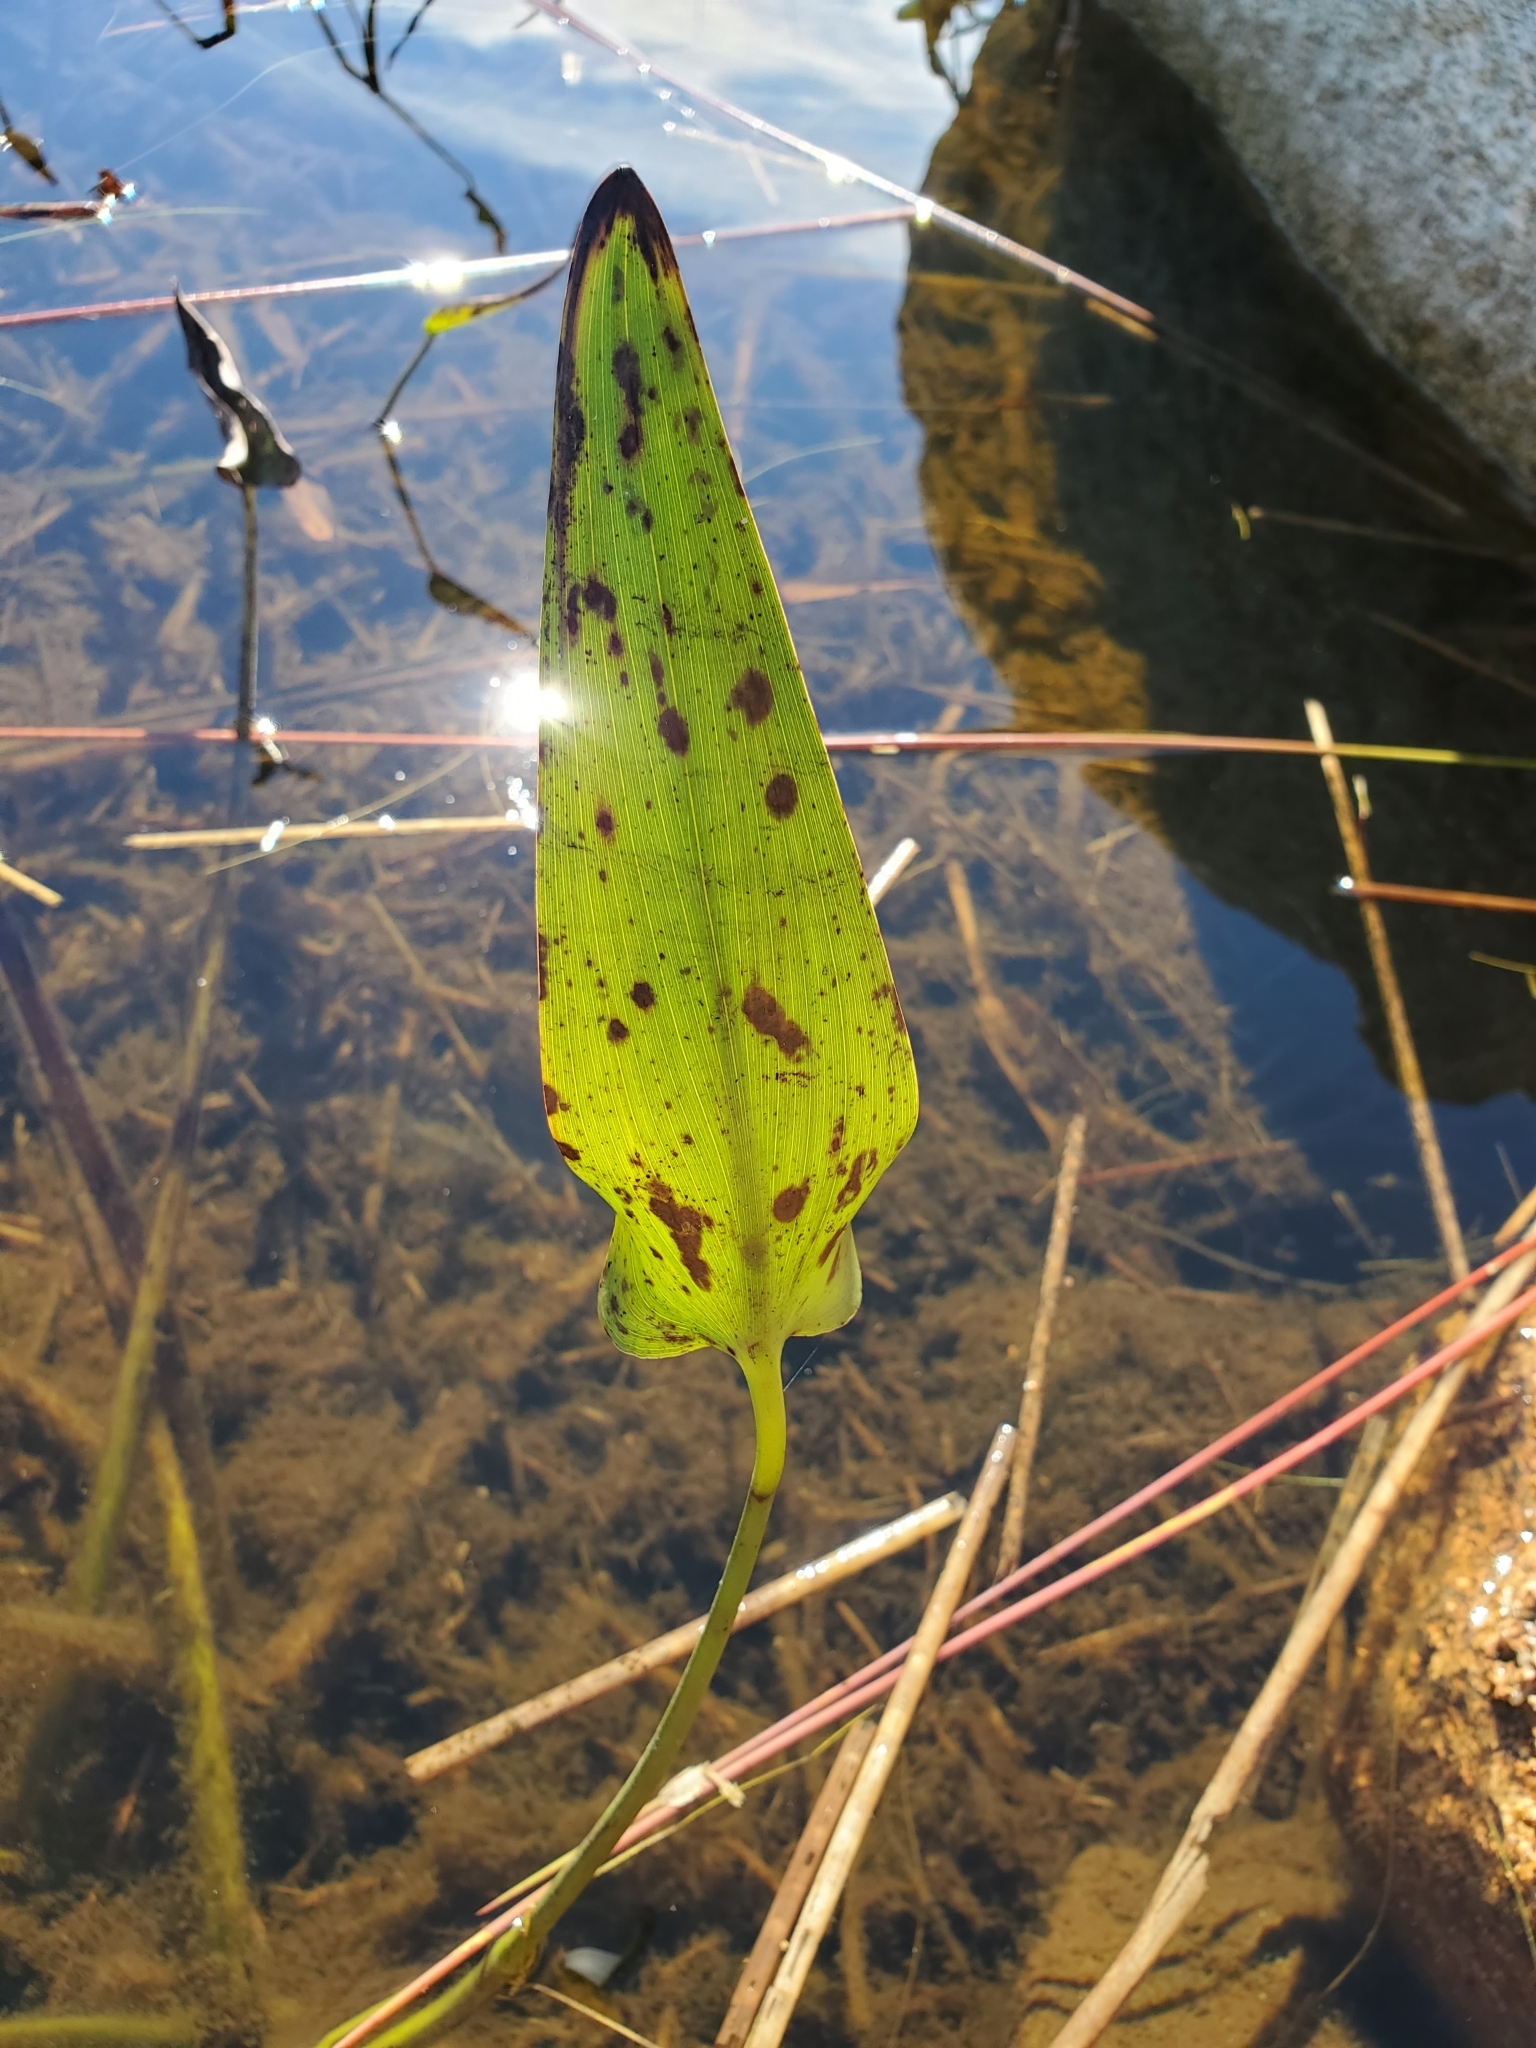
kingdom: Plantae
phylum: Tracheophyta
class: Liliopsida
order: Commelinales
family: Pontederiaceae
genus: Pontederia
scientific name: Pontederia cordata
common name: Pickerelweed
